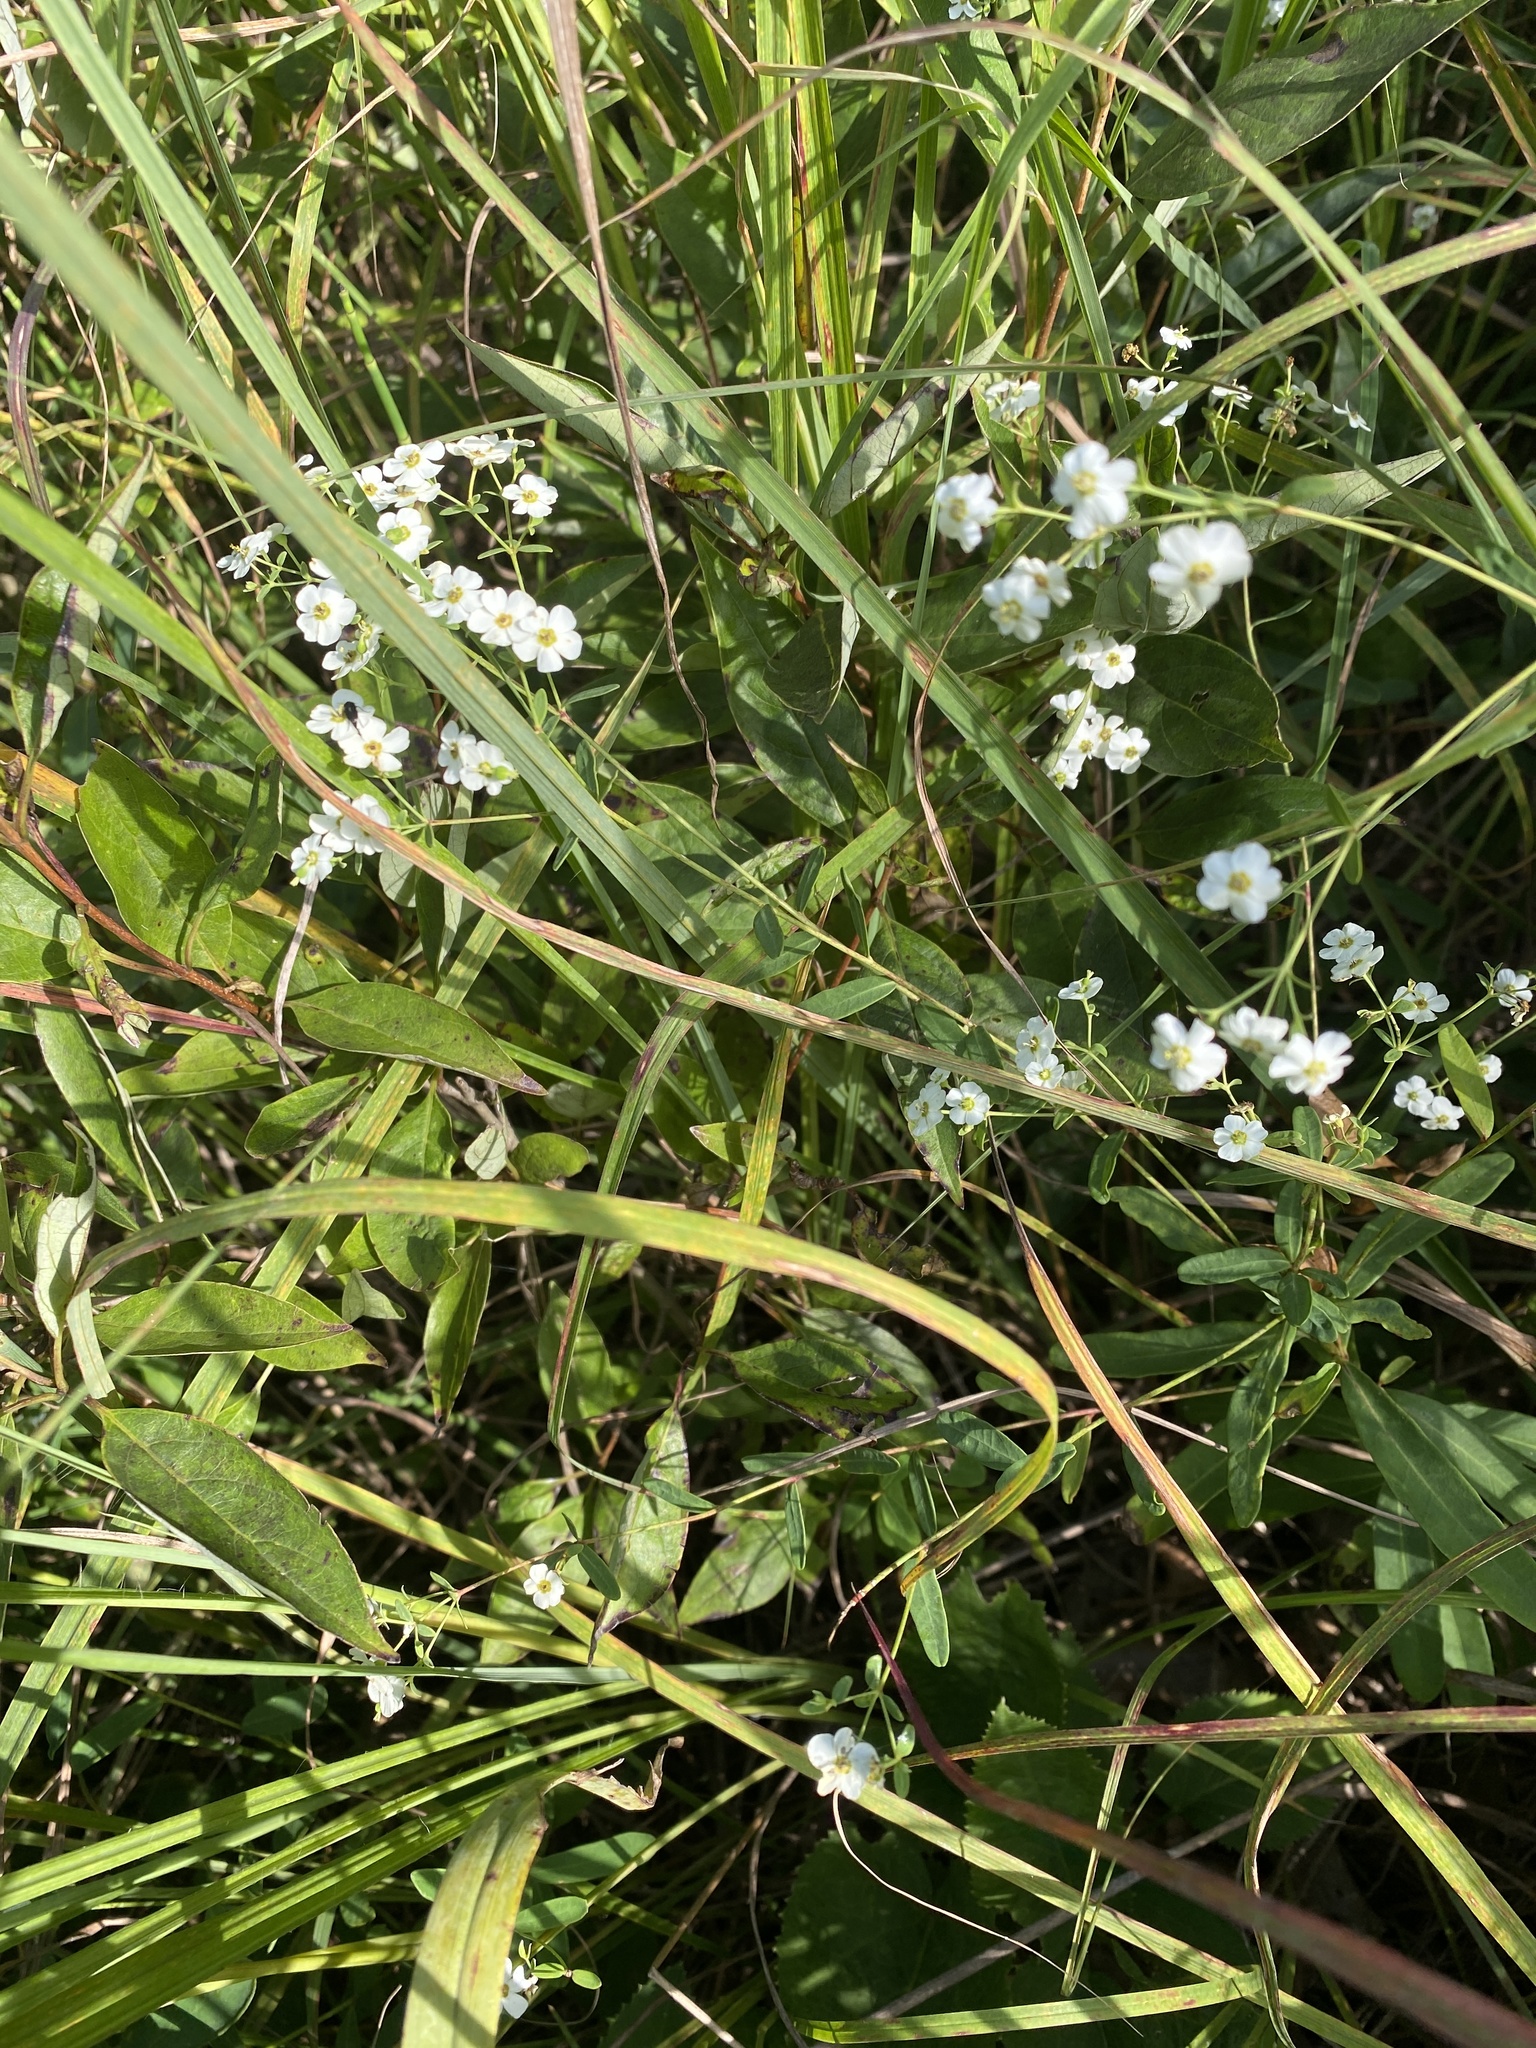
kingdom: Plantae
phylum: Tracheophyta
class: Magnoliopsida
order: Malpighiales
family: Euphorbiaceae
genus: Euphorbia
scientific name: Euphorbia corollata
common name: Flowering spurge
